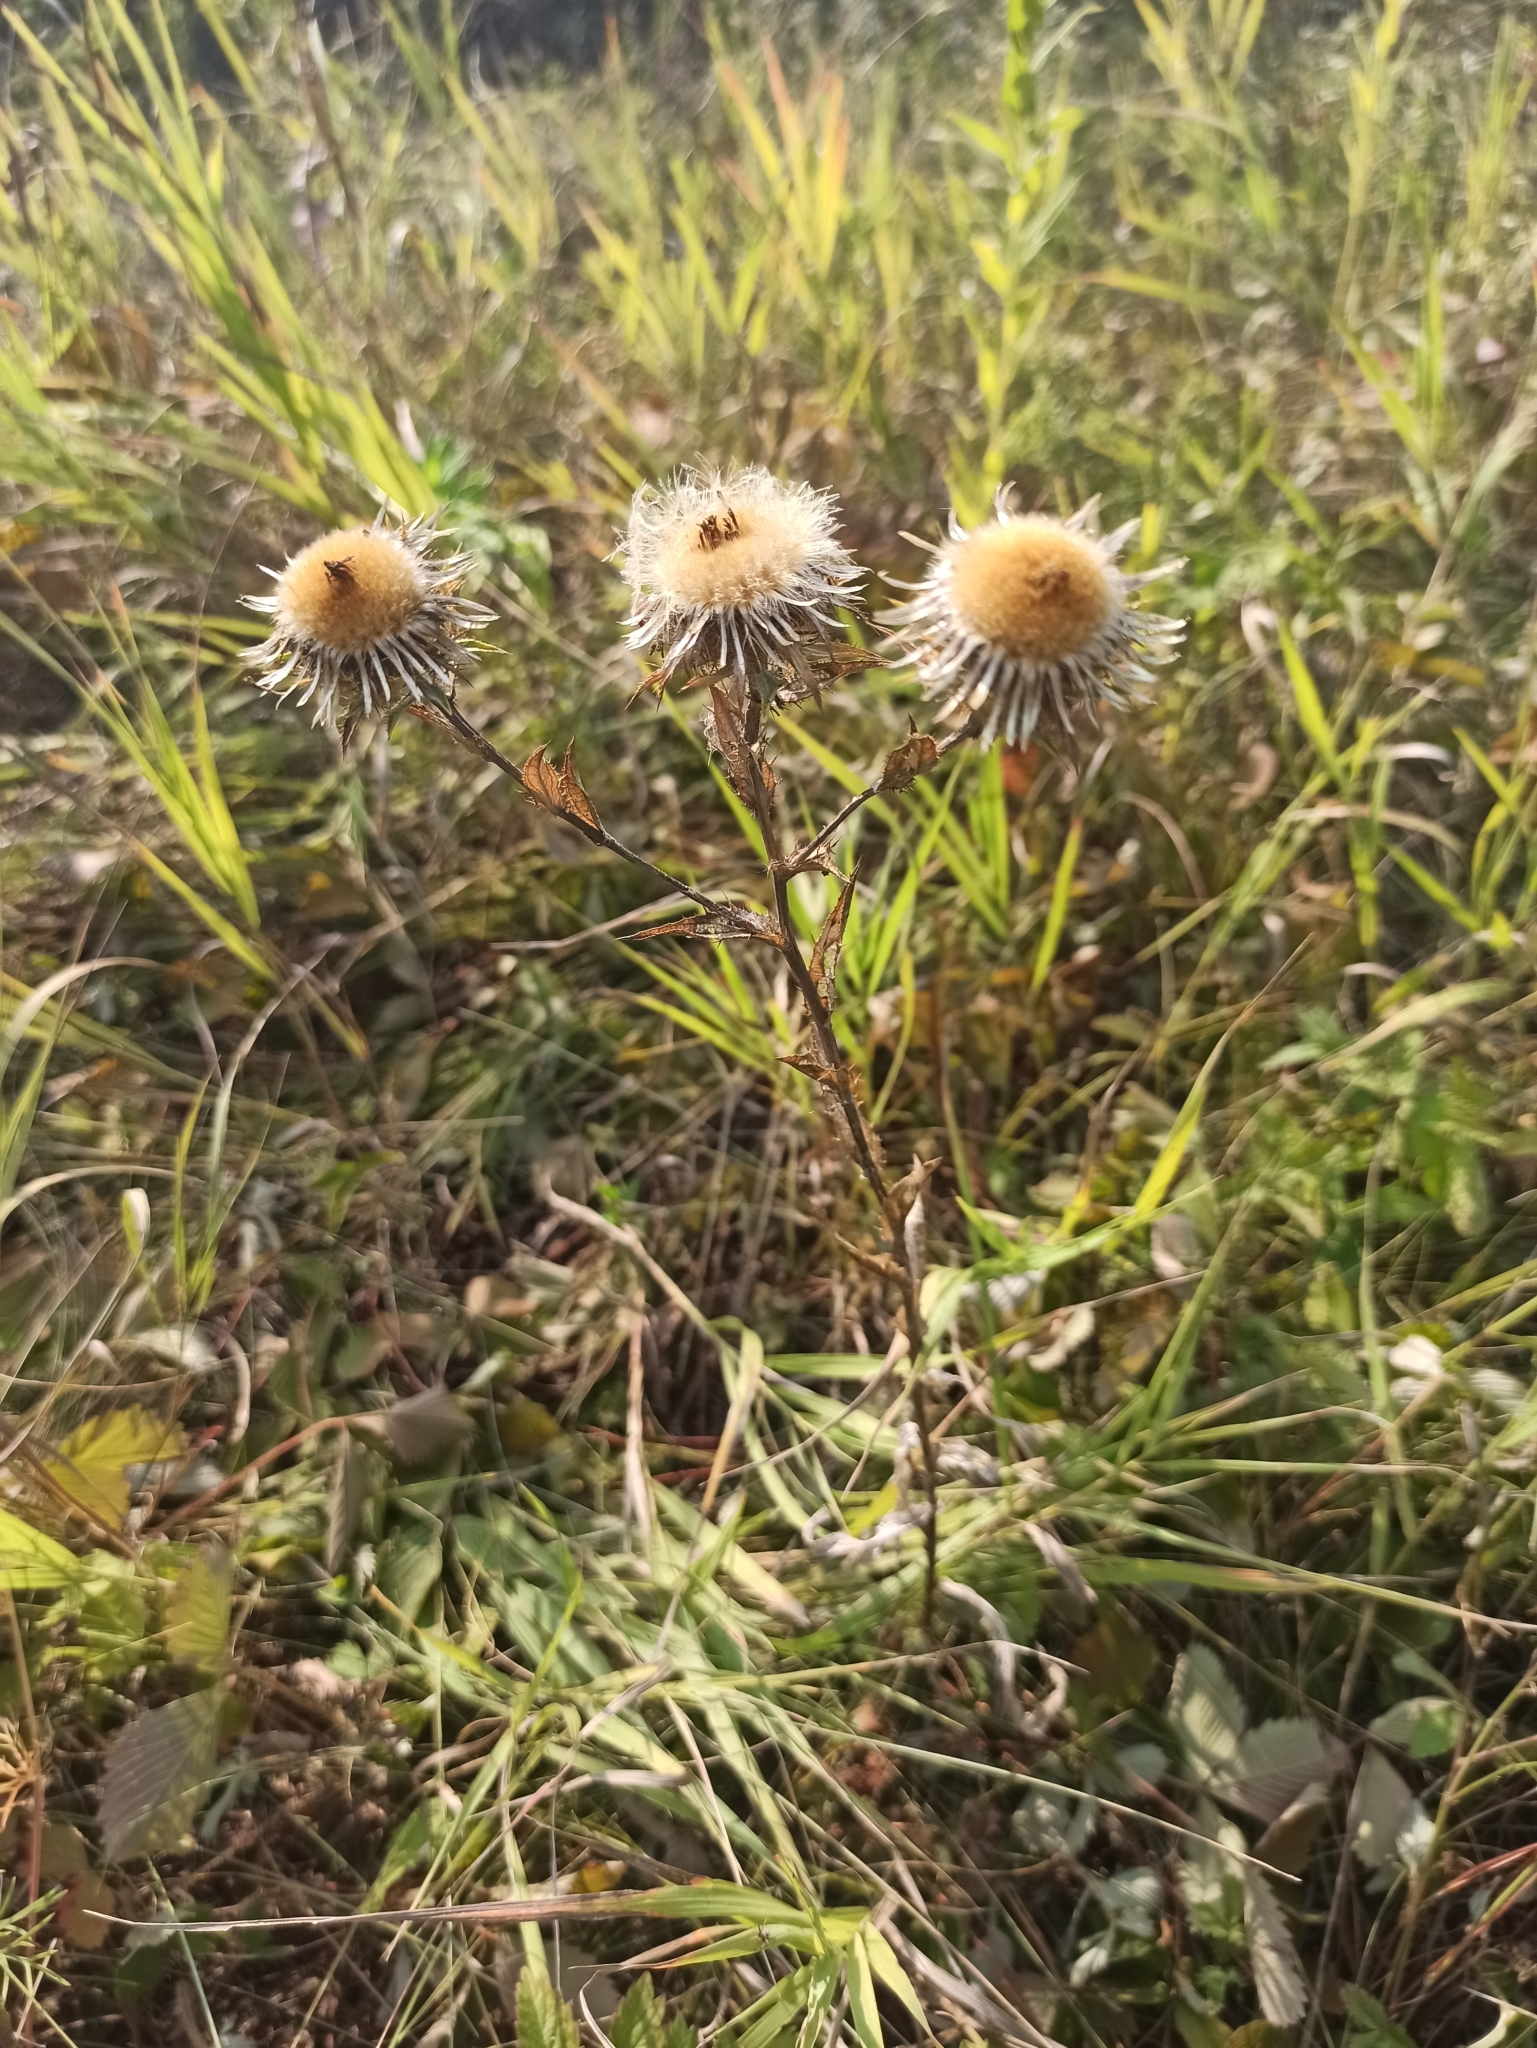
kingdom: Plantae
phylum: Tracheophyta
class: Magnoliopsida
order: Asterales
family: Asteraceae
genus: Carlina
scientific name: Carlina biebersteinii
